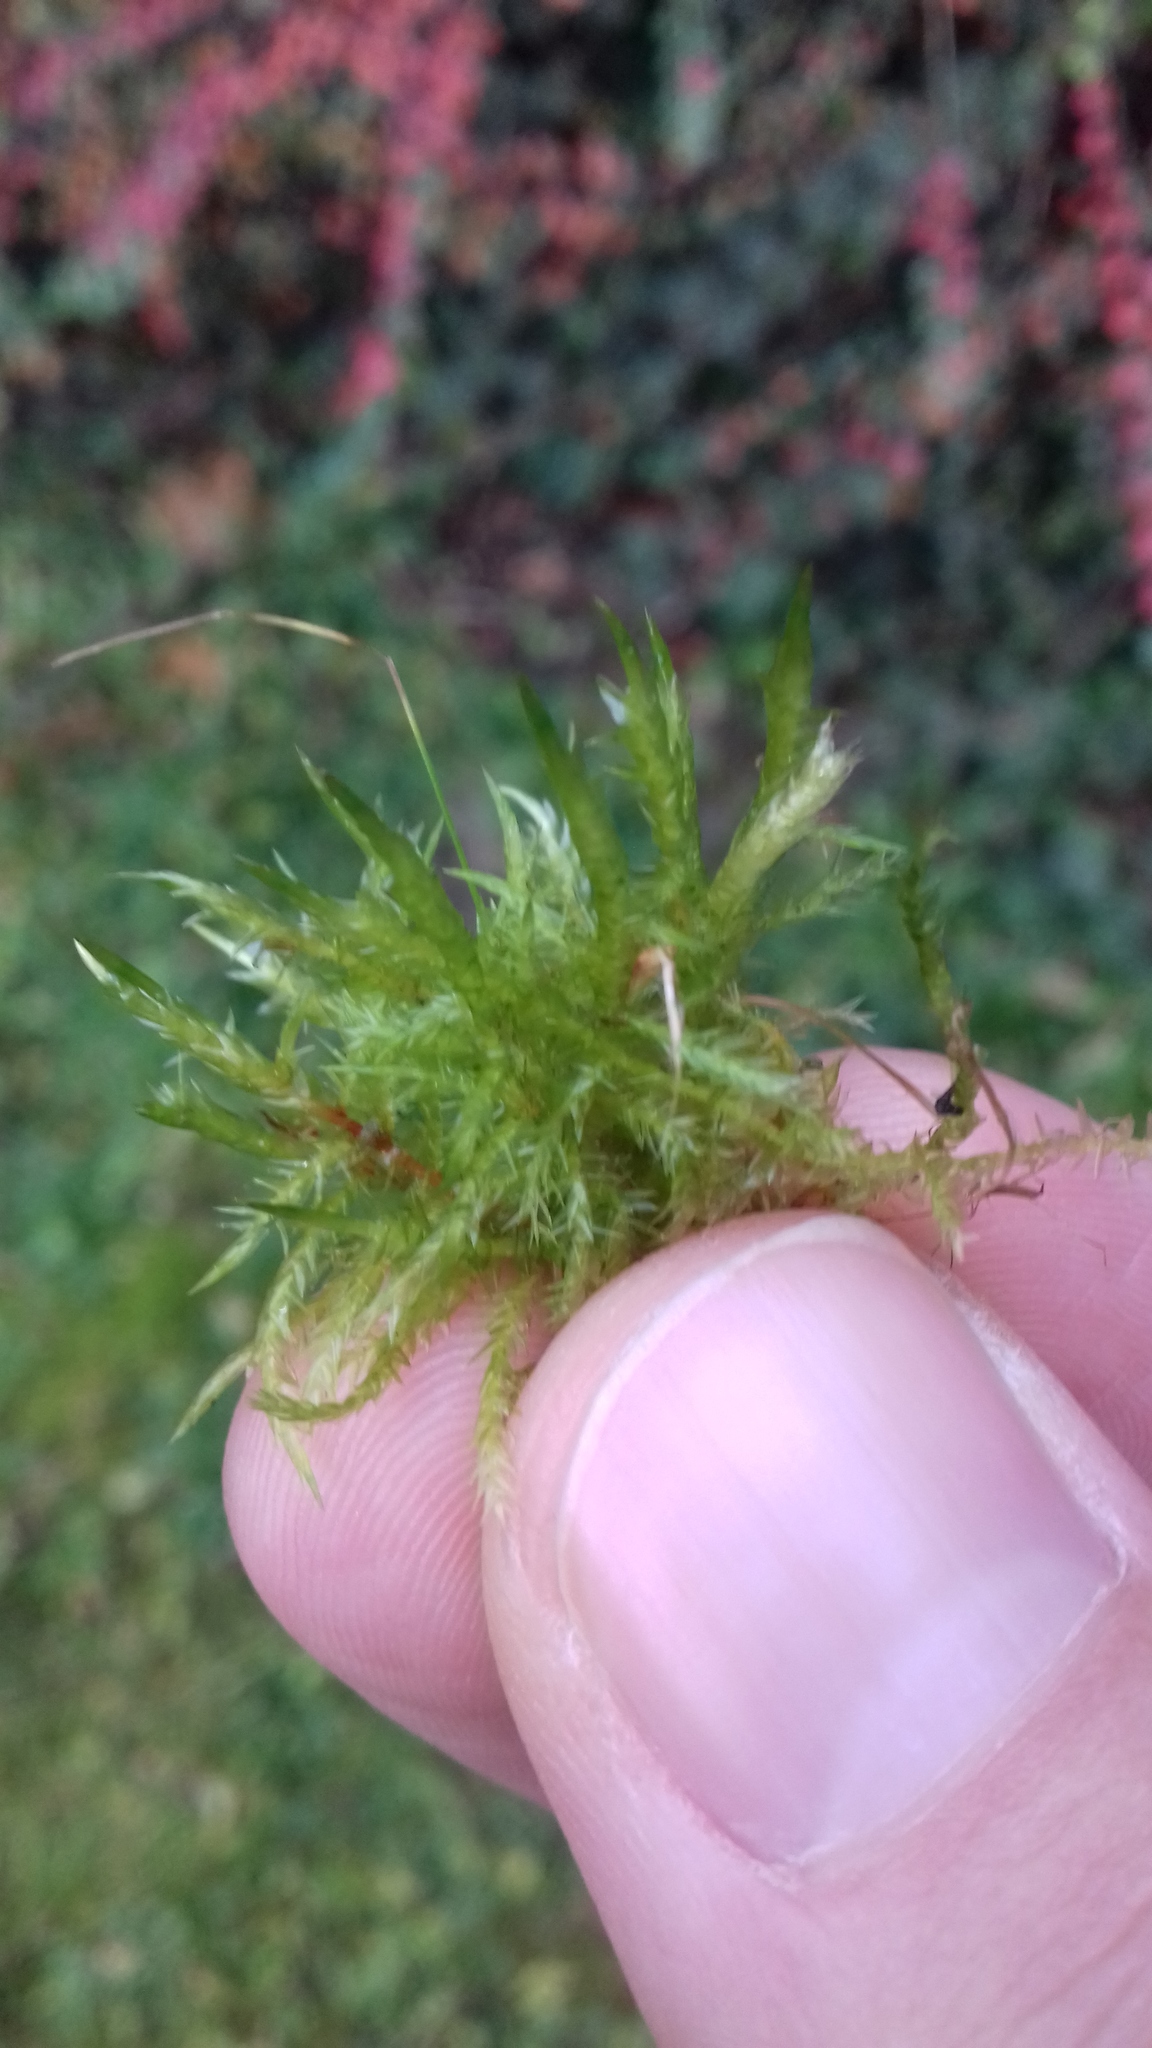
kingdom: Plantae
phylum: Bryophyta
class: Bryopsida
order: Hypnales
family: Pylaisiaceae
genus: Calliergonella
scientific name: Calliergonella cuspidata
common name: Common large wetland moss
